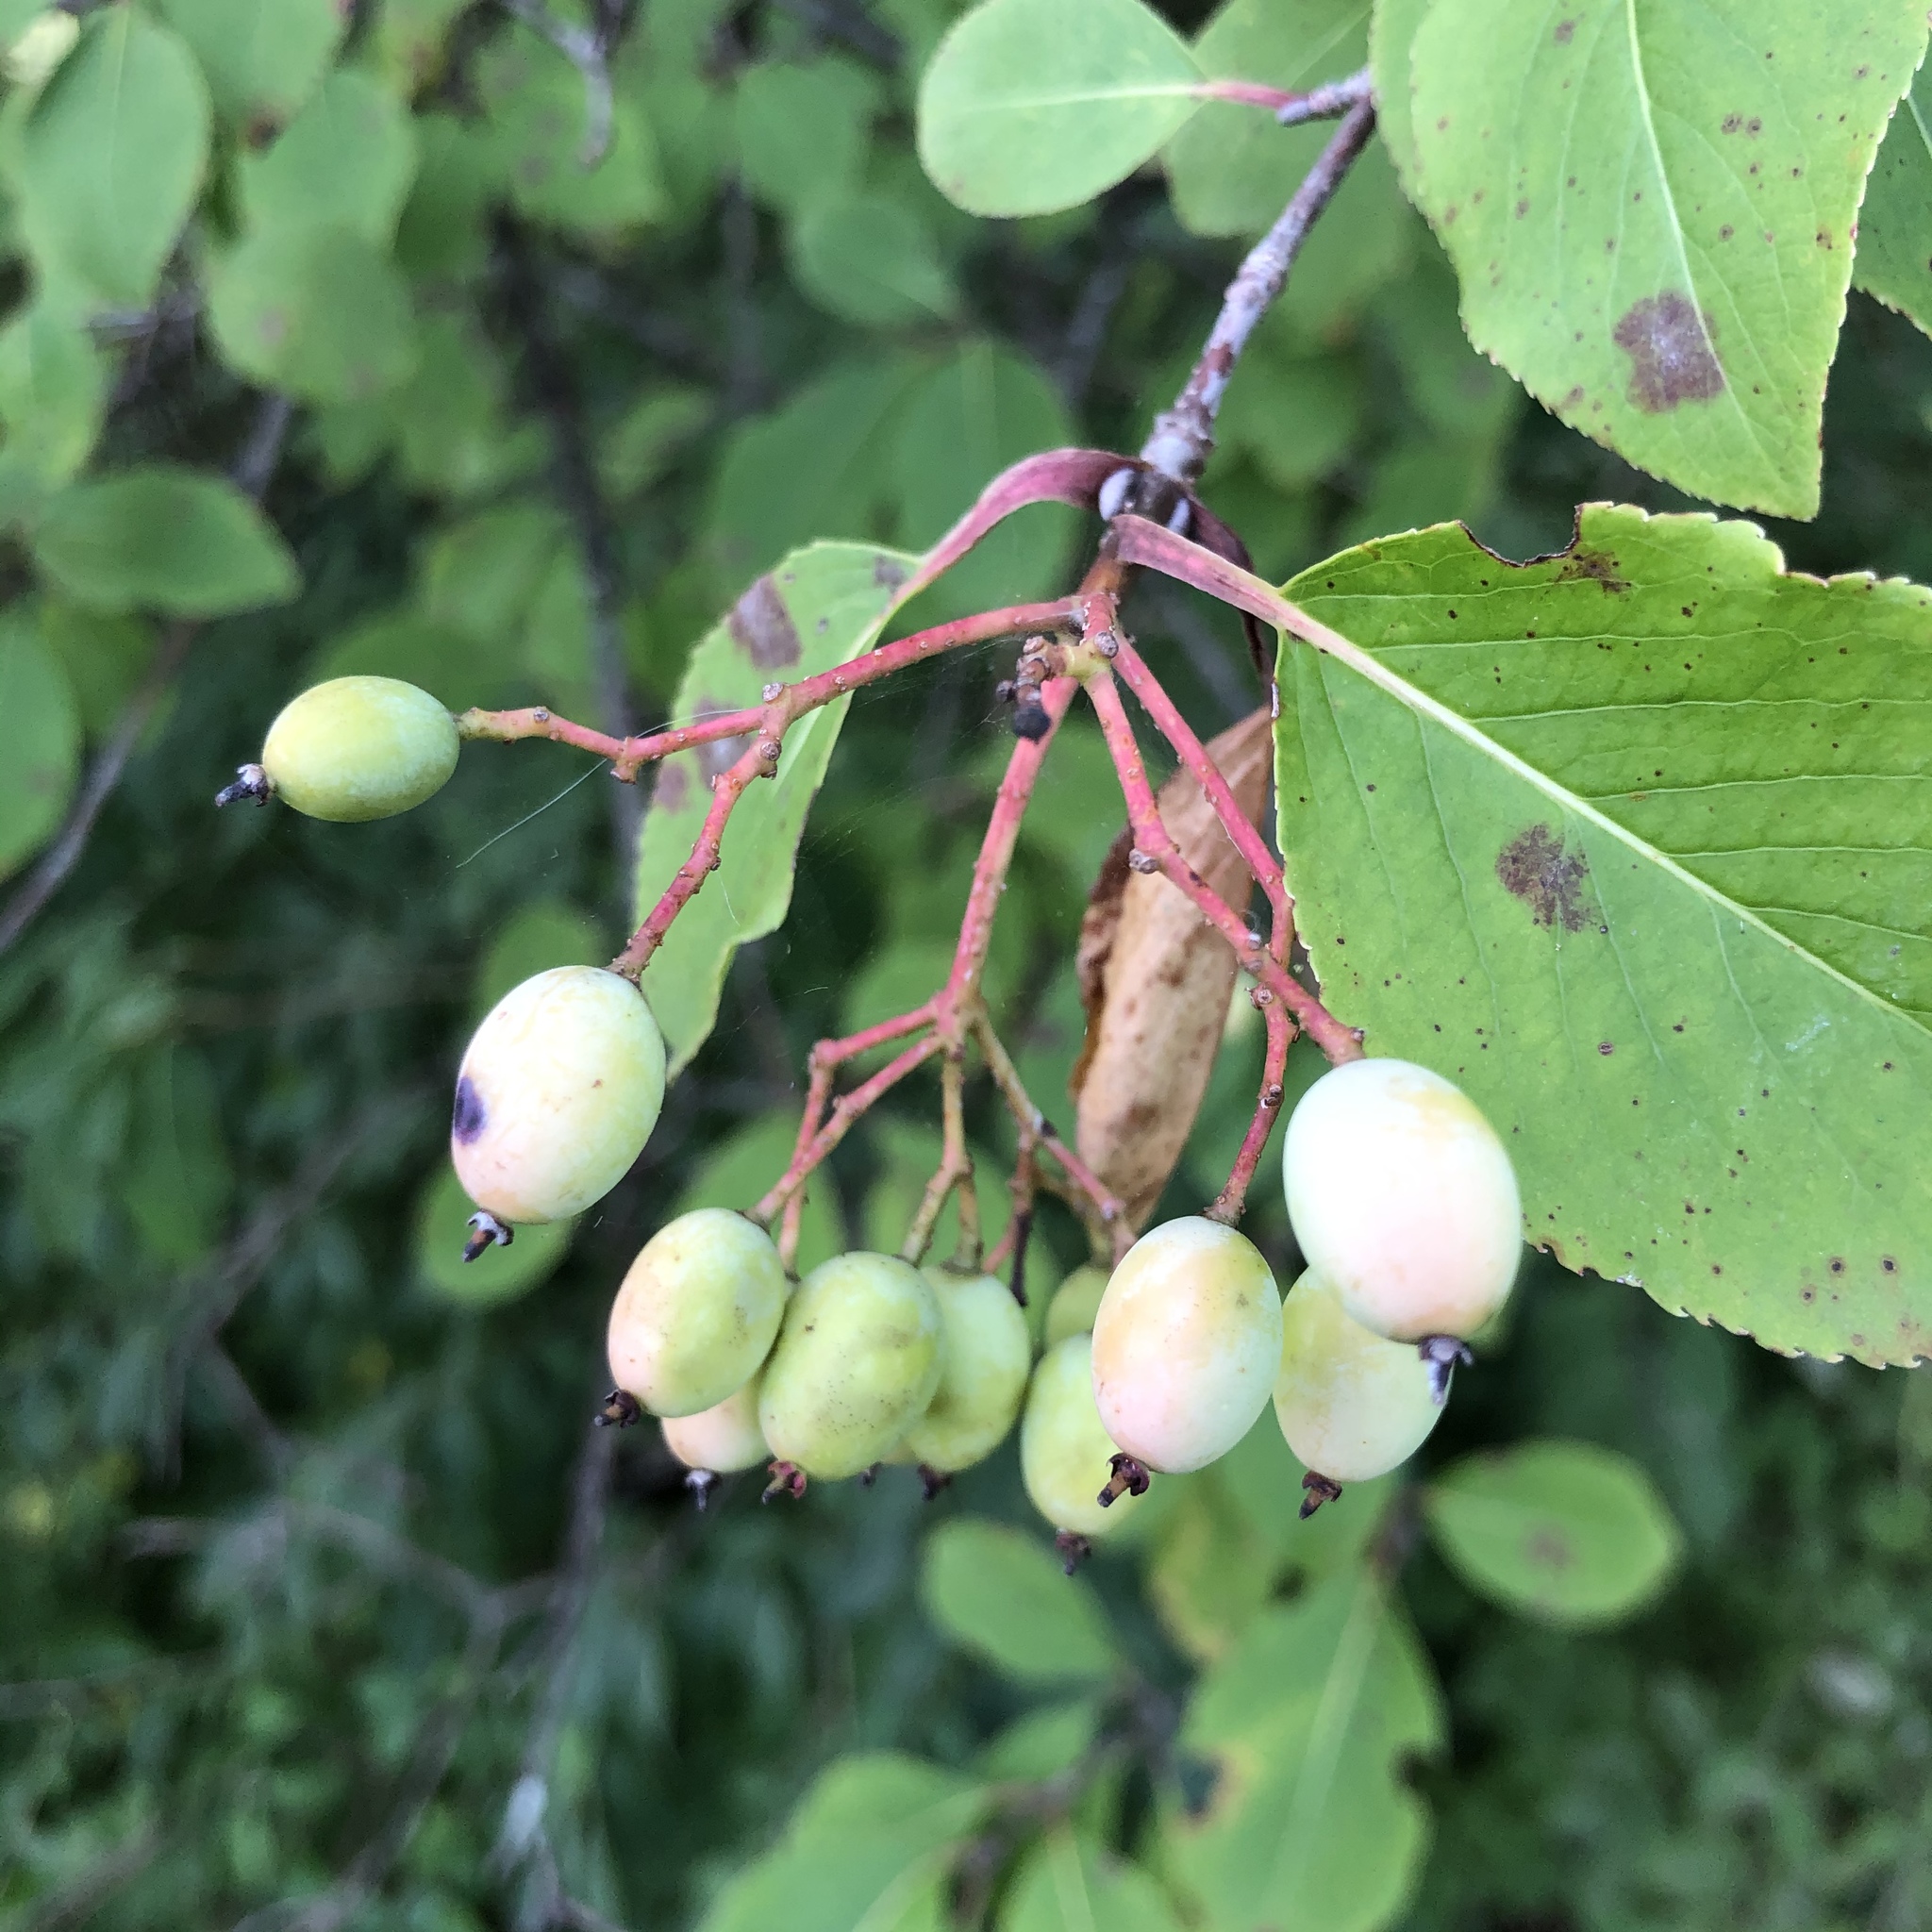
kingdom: Plantae
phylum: Tracheophyta
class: Magnoliopsida
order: Dipsacales
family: Viburnaceae
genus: Viburnum
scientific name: Viburnum prunifolium
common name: Black haw
